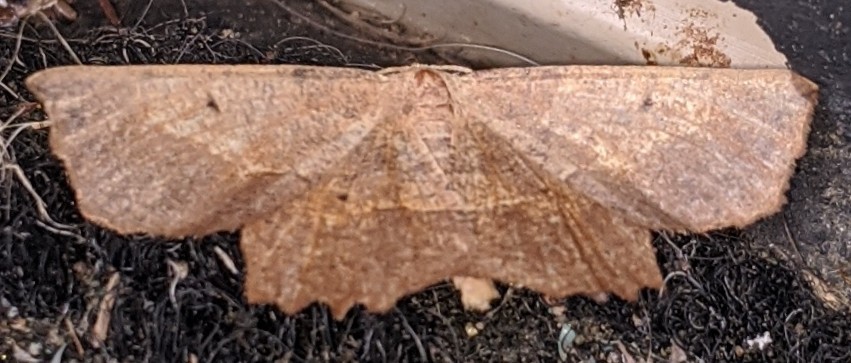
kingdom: Animalia
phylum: Arthropoda
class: Insecta
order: Lepidoptera
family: Geometridae
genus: Euchlaena
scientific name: Euchlaena muzaria
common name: Muzaria euchlaena
